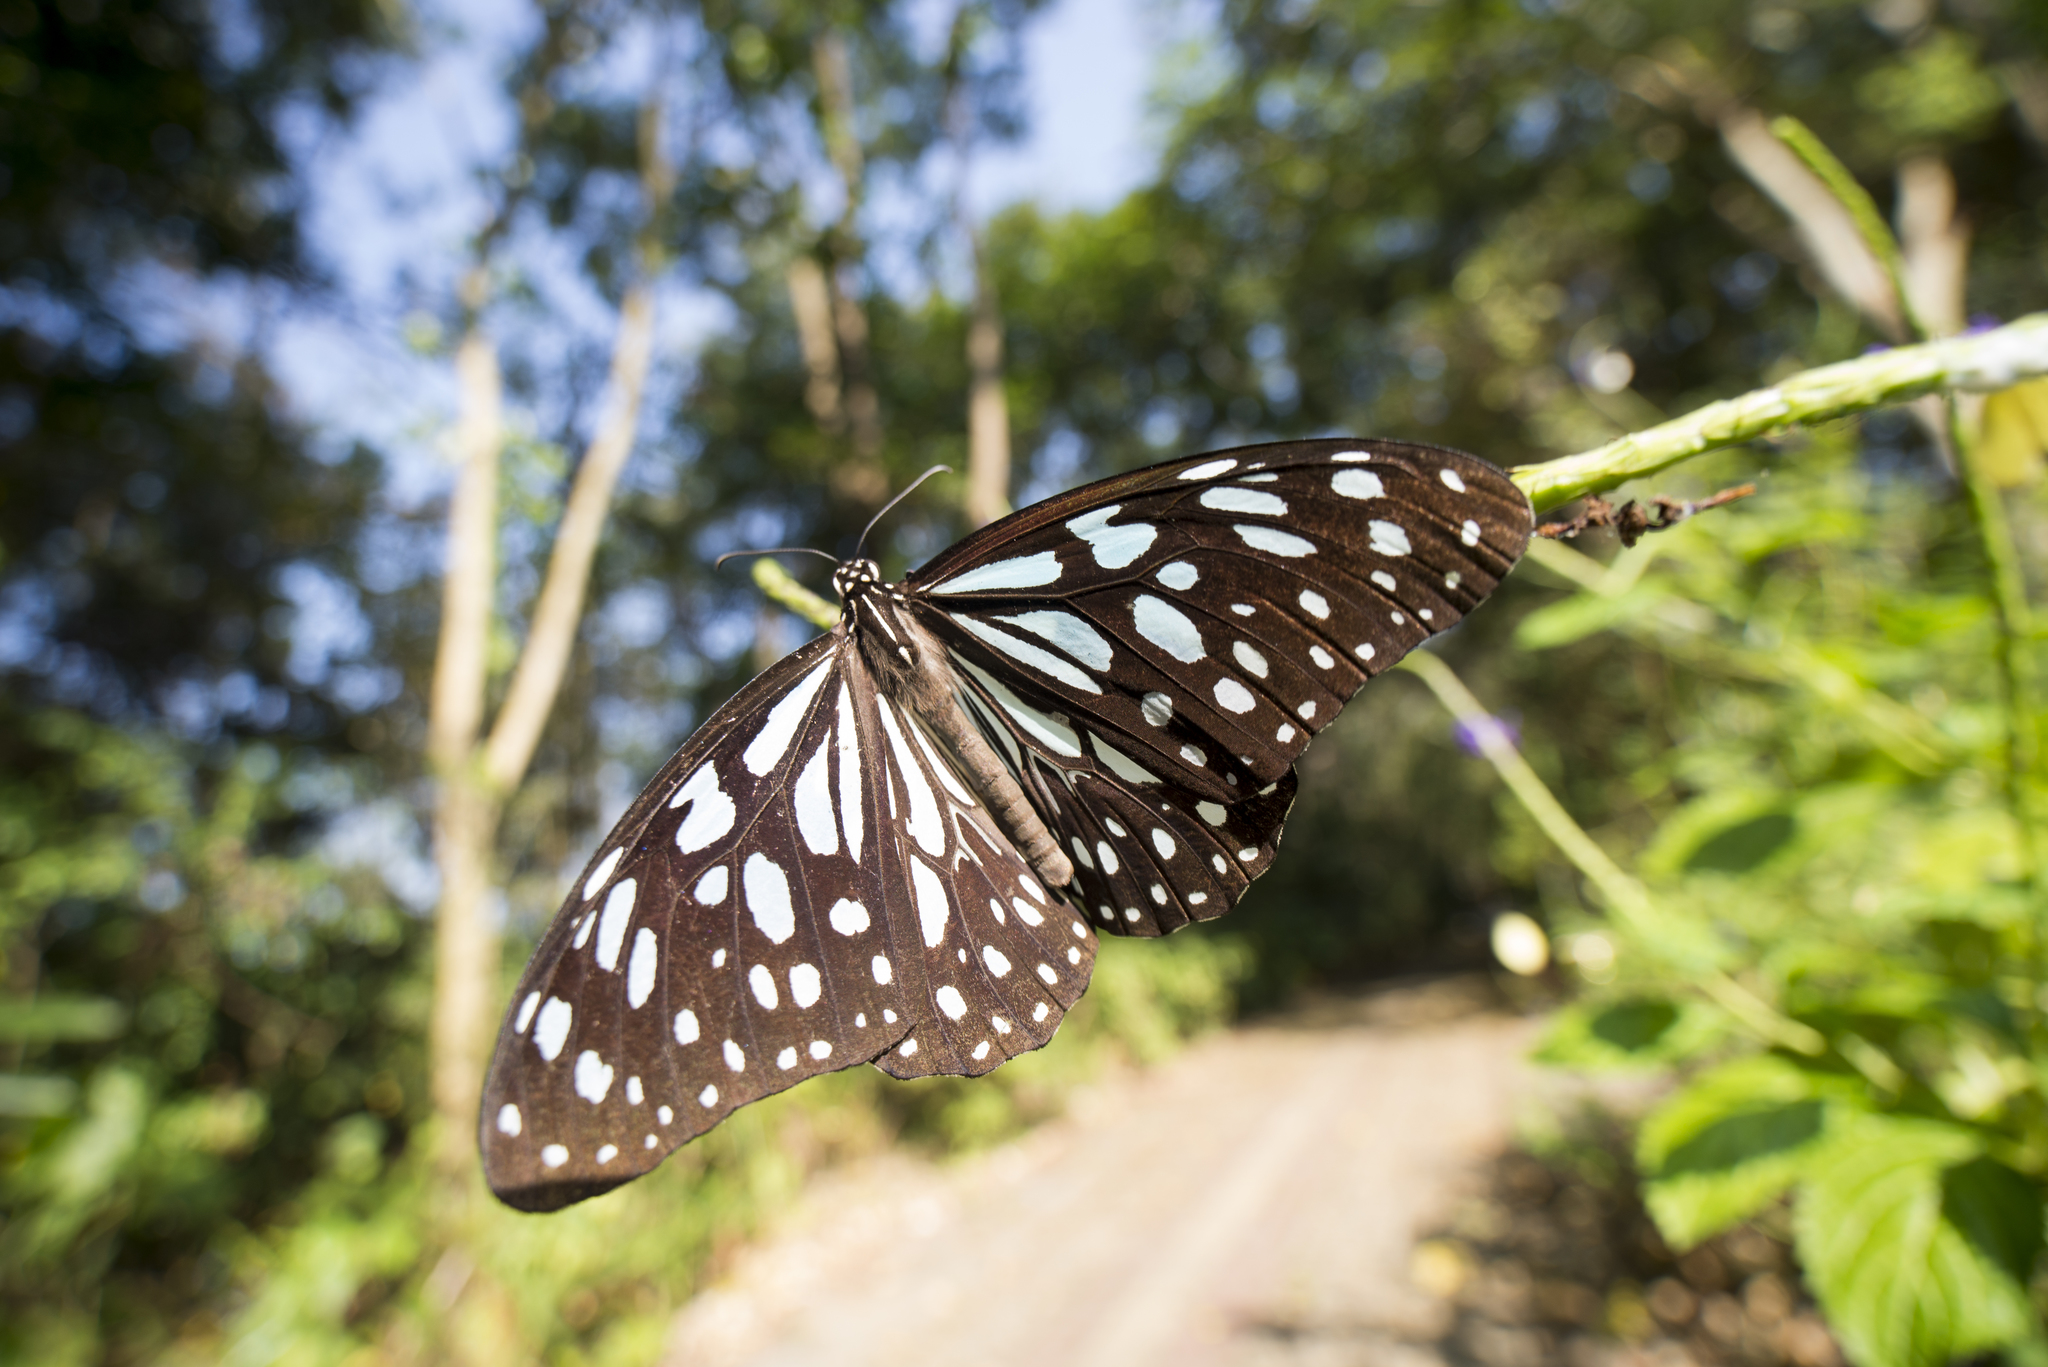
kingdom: Animalia
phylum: Arthropoda
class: Insecta
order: Lepidoptera
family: Nymphalidae
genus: Tirumala
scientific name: Tirumala limniace
